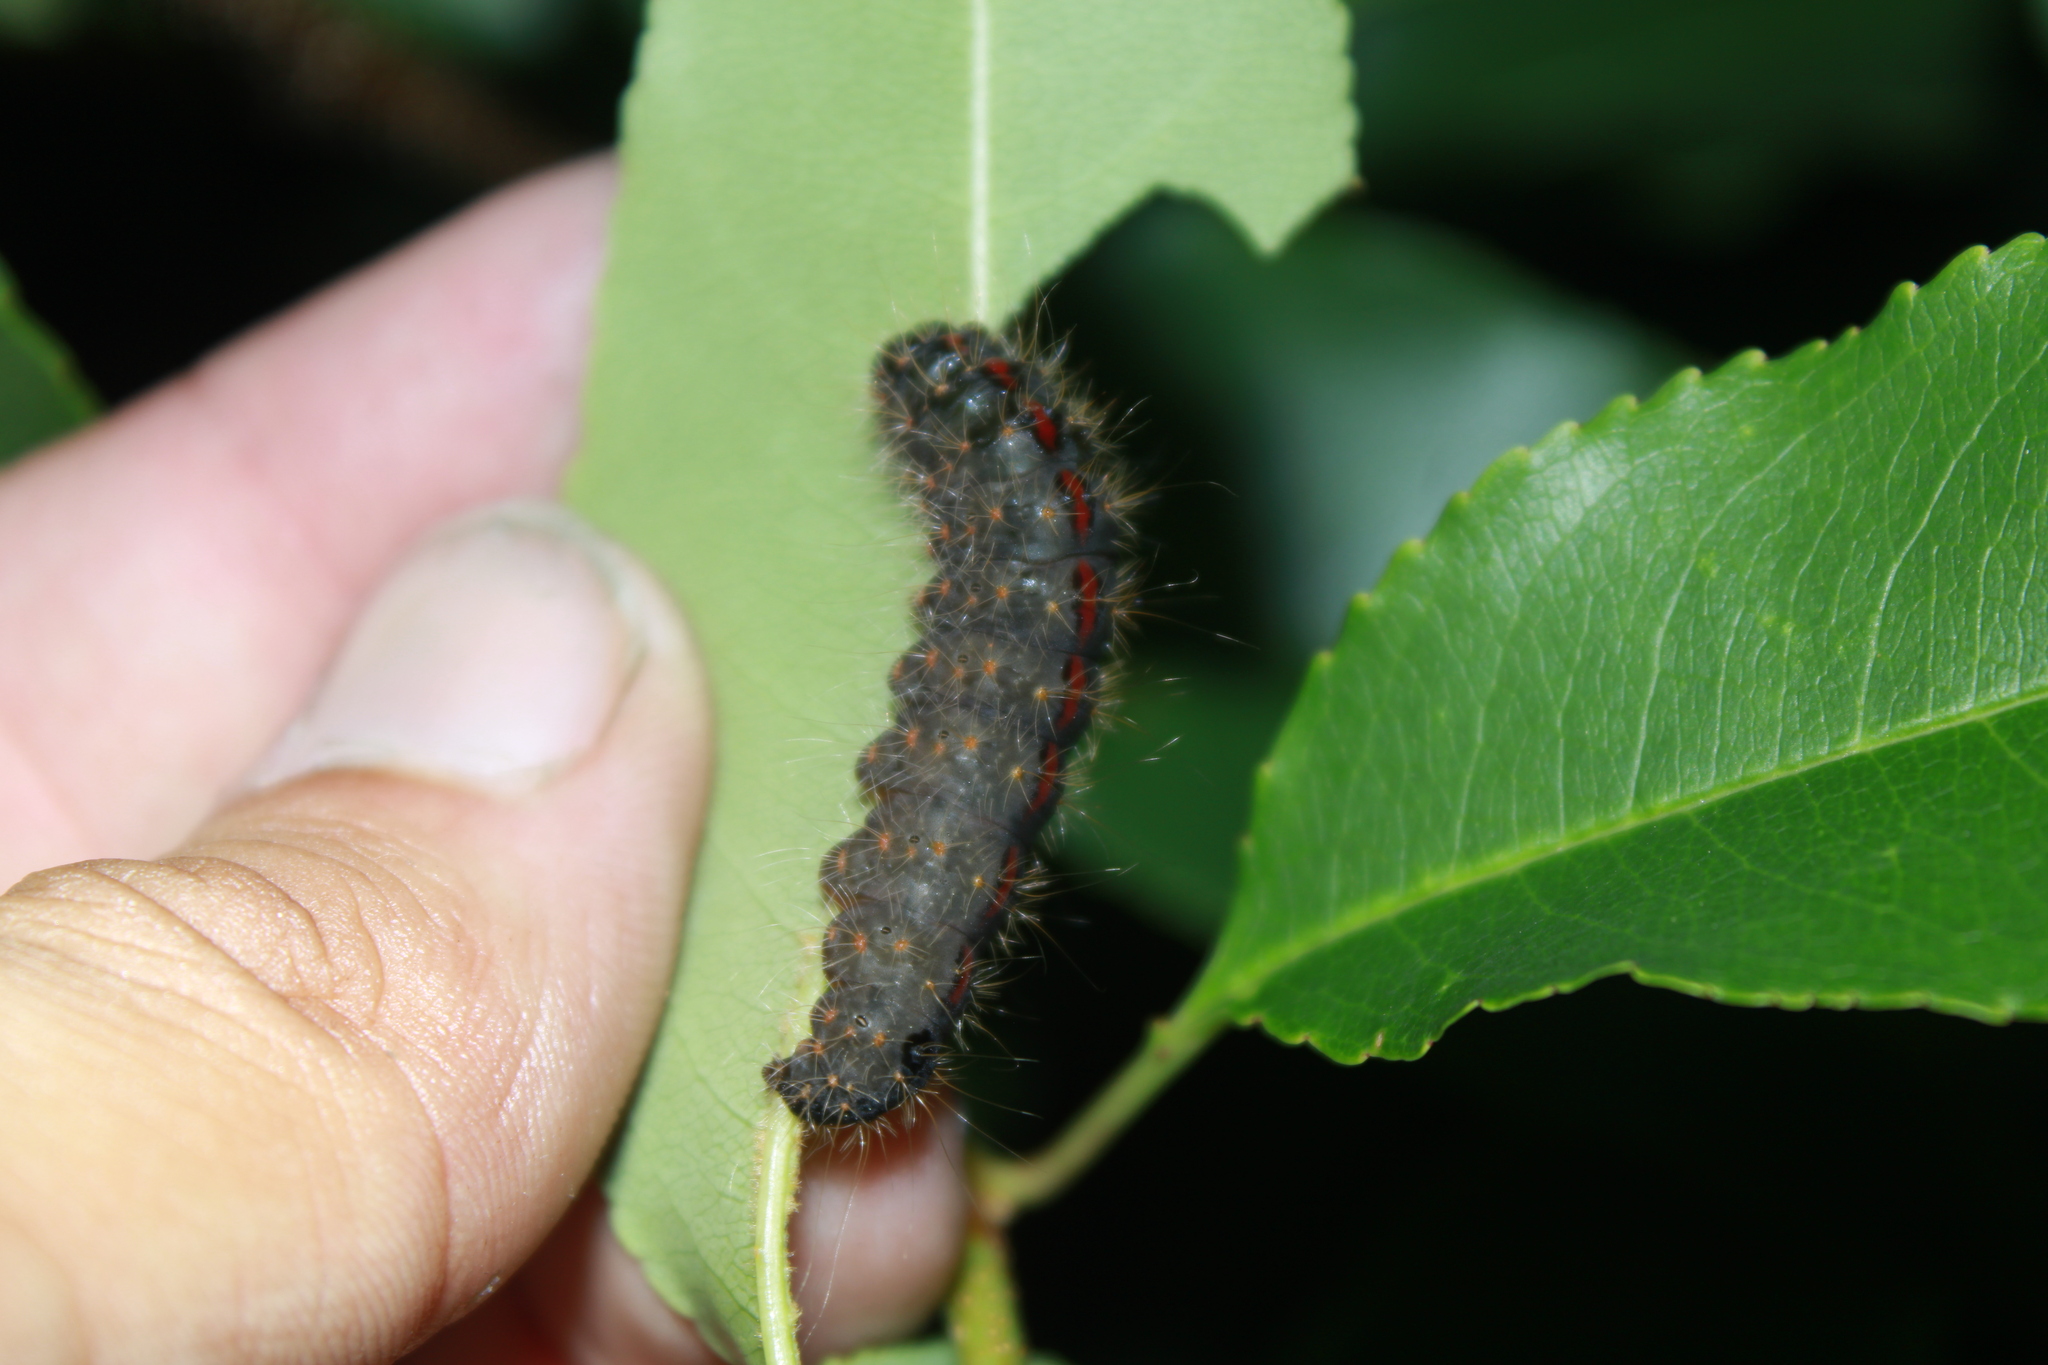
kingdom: Animalia
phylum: Arthropoda
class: Insecta
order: Lepidoptera
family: Noctuidae
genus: Acronicta
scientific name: Acronicta hasta
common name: Cherry dagger
